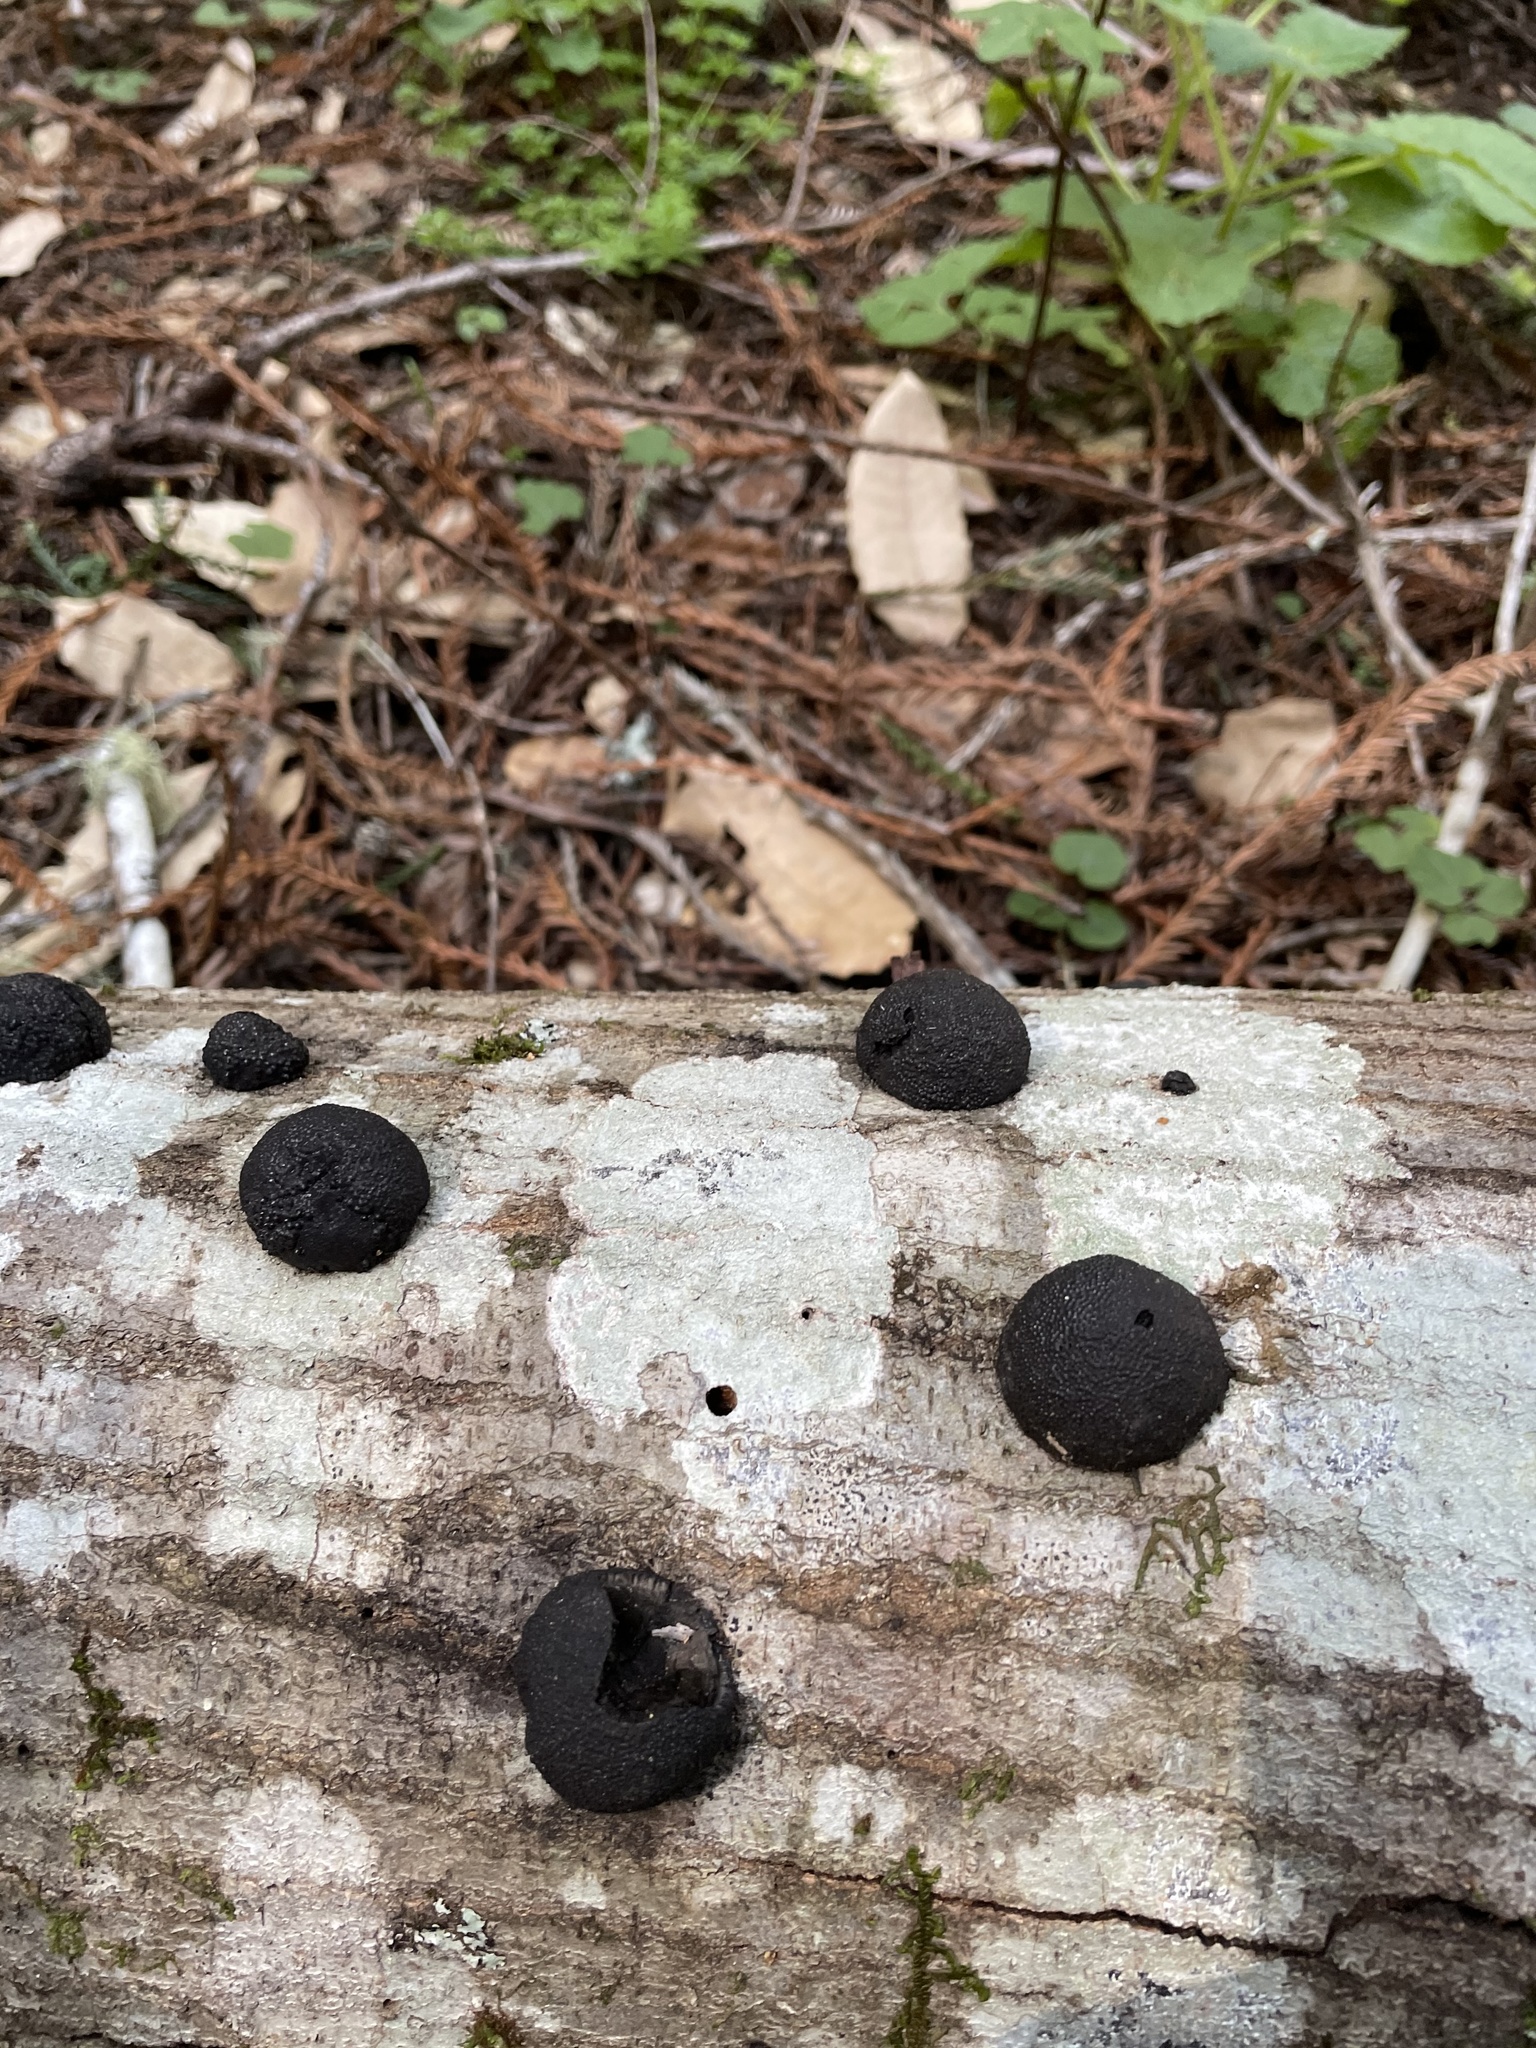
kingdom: Fungi
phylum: Ascomycota
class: Sordariomycetes
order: Xylariales
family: Hypoxylaceae
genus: Annulohypoxylon
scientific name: Annulohypoxylon thouarsianum
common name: Cramp balls
